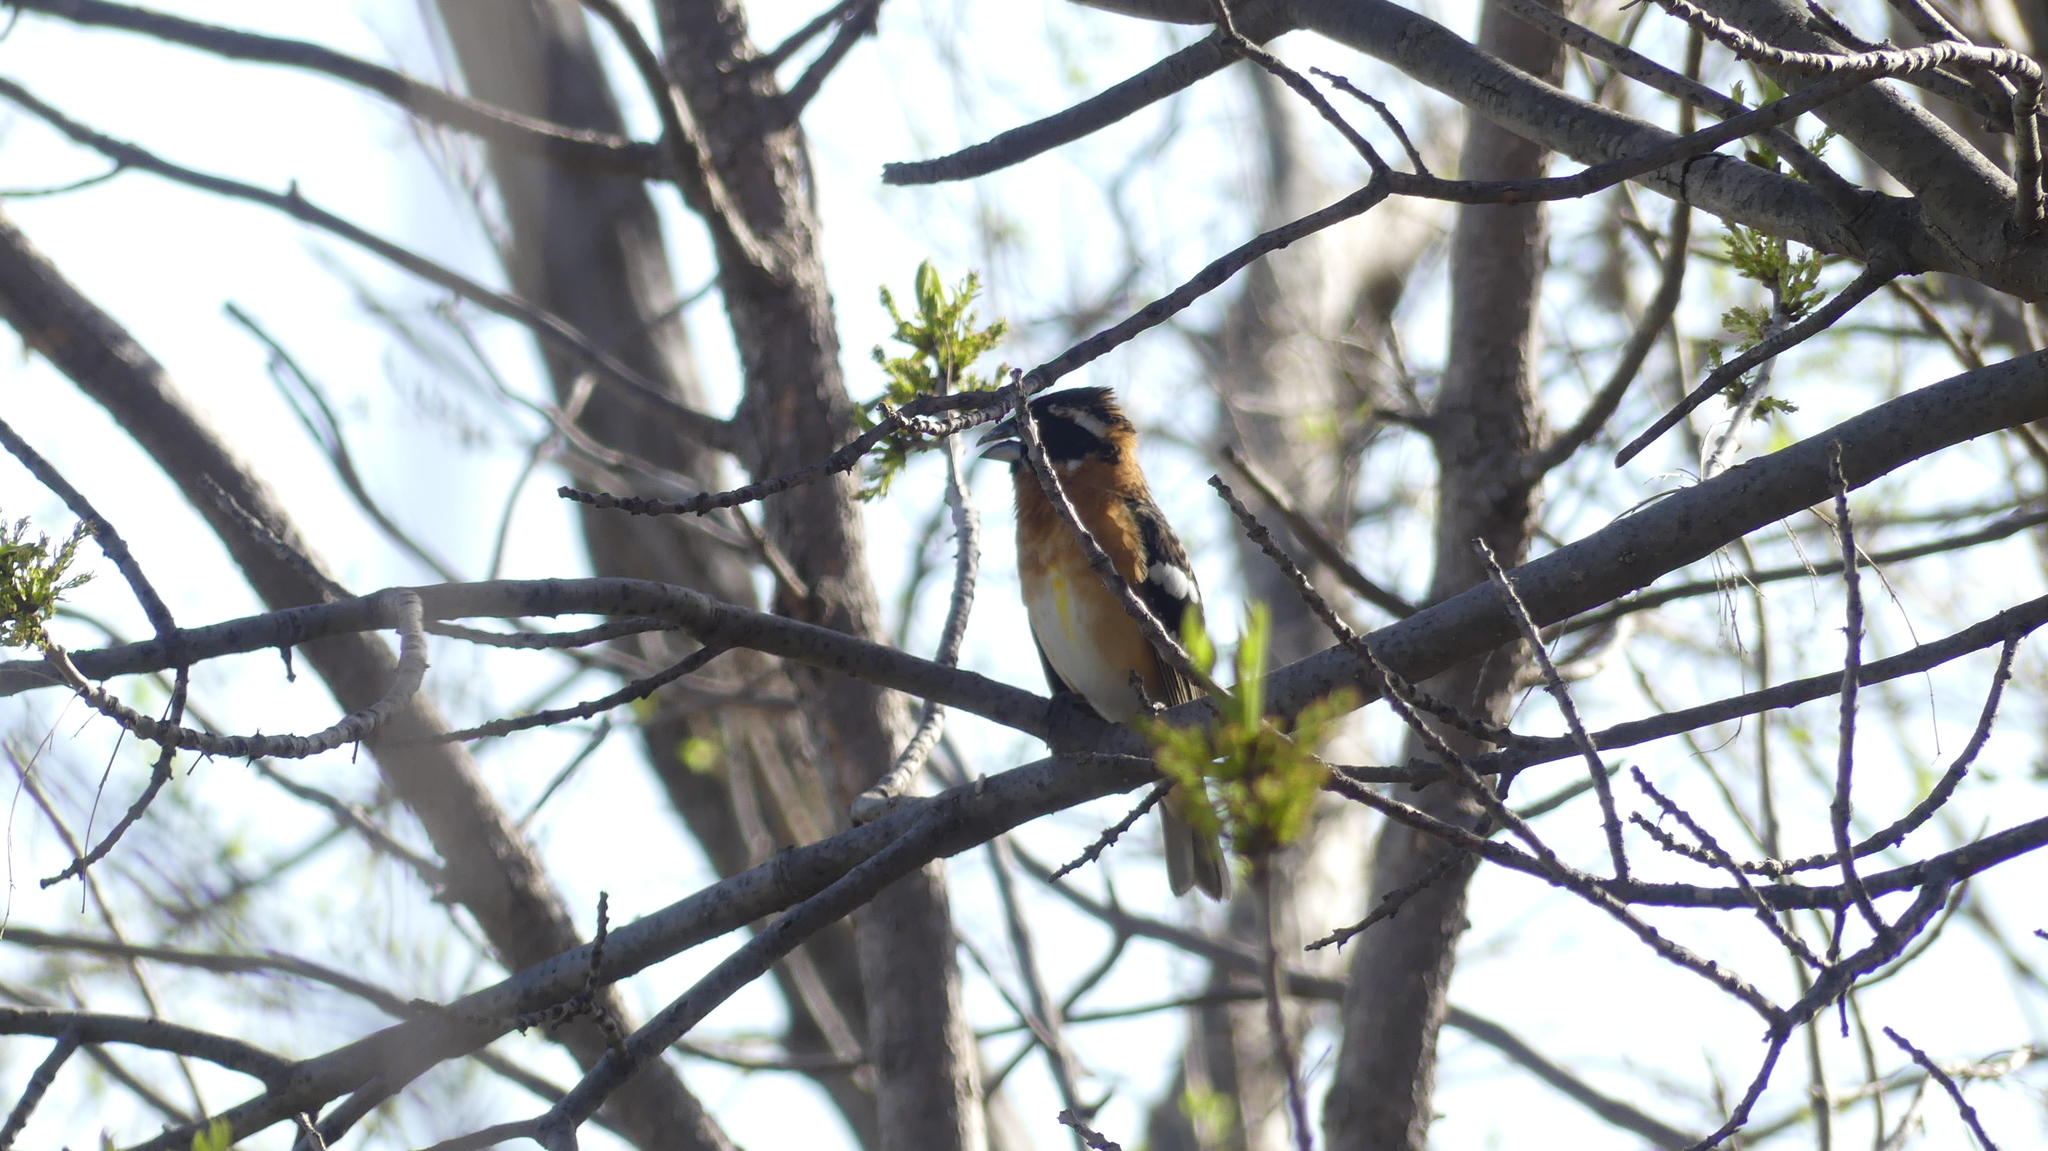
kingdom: Animalia
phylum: Chordata
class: Aves
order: Passeriformes
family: Cardinalidae
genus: Pheucticus
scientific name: Pheucticus melanocephalus
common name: Black-headed grosbeak
